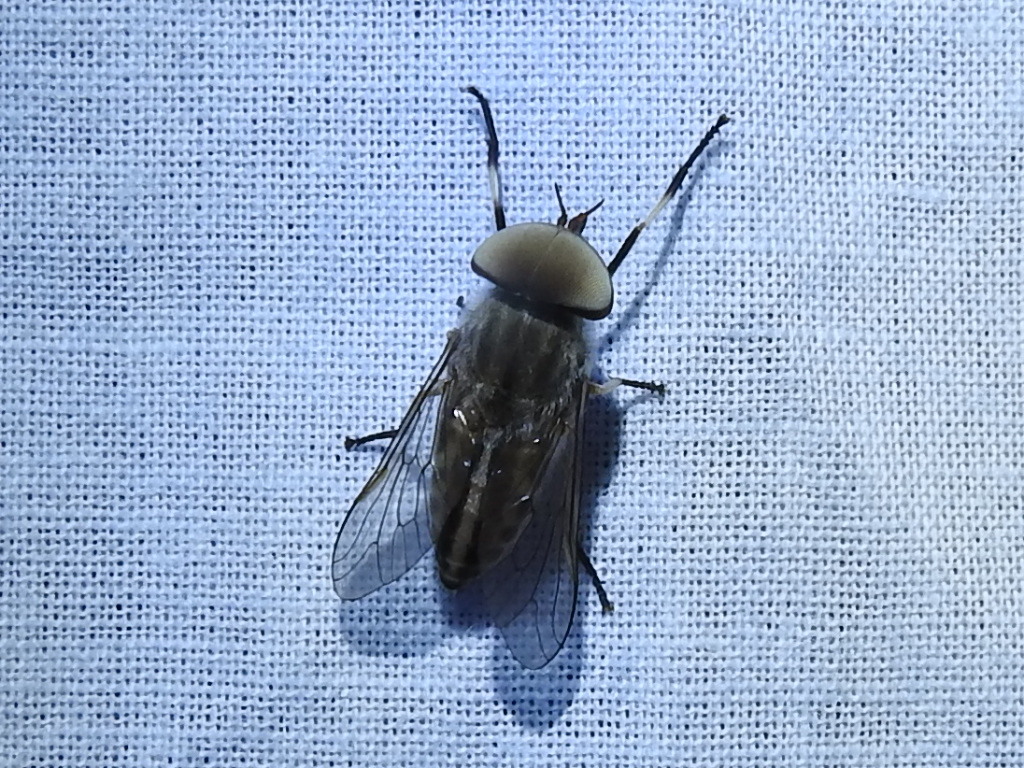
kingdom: Animalia
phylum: Arthropoda
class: Insecta
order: Diptera
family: Tabanidae
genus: Tabanus
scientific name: Tabanus lineola
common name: Striped horse fly
